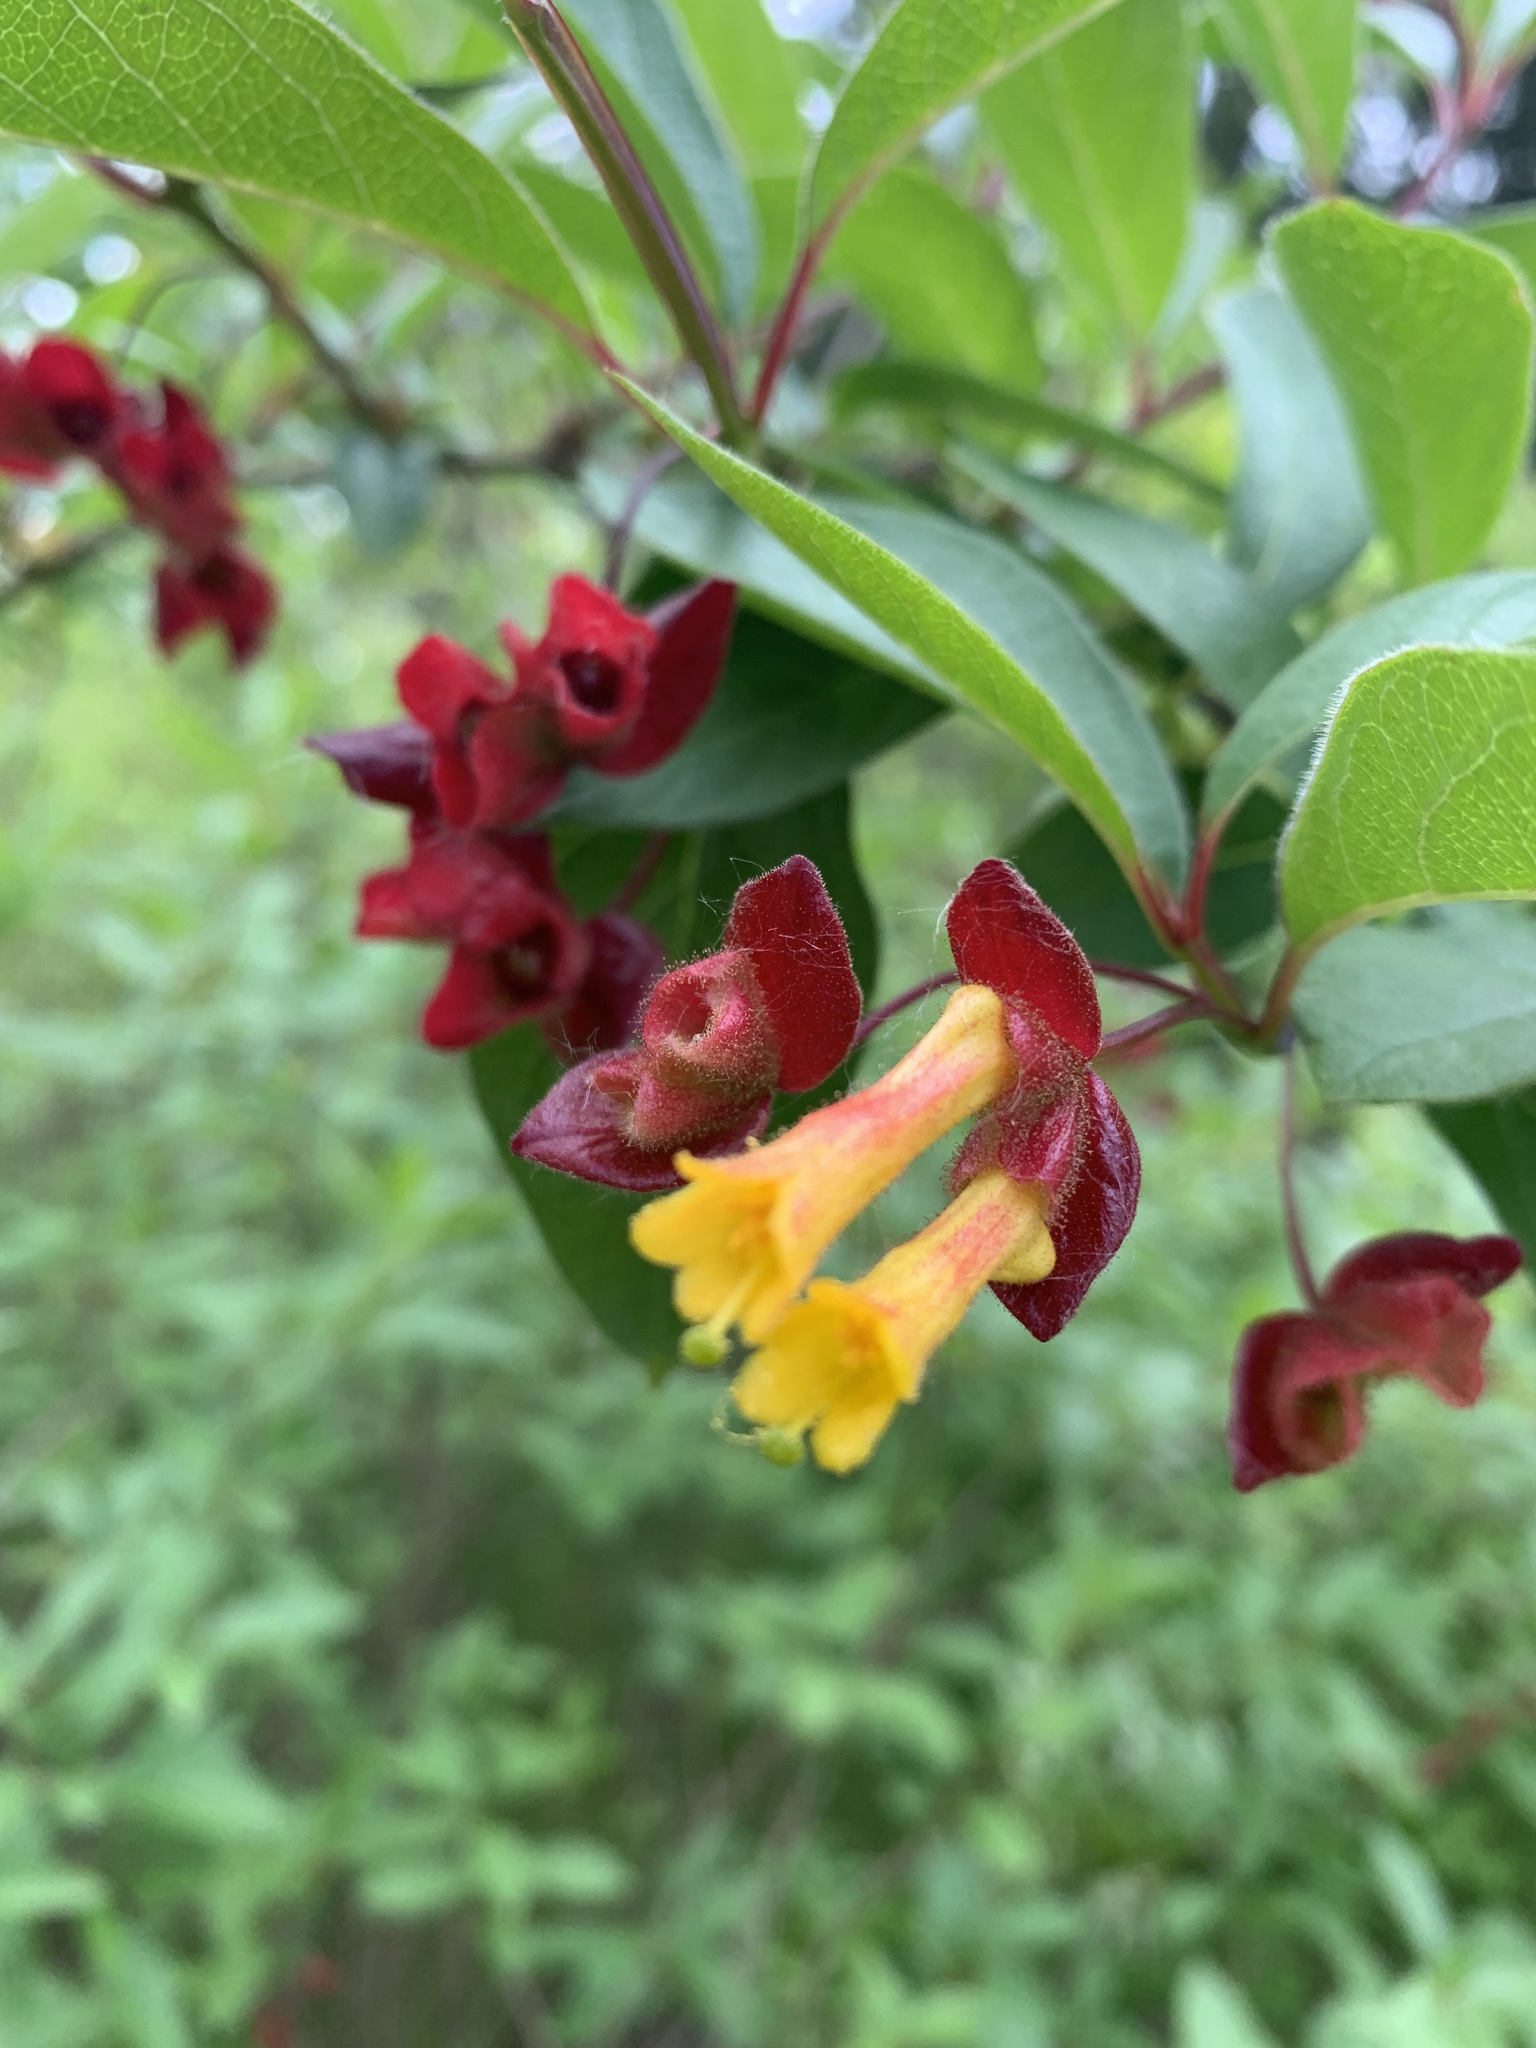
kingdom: Plantae
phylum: Tracheophyta
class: Magnoliopsida
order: Dipsacales
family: Caprifoliaceae
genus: Lonicera
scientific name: Lonicera involucrata
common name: Californian honeysuckle
